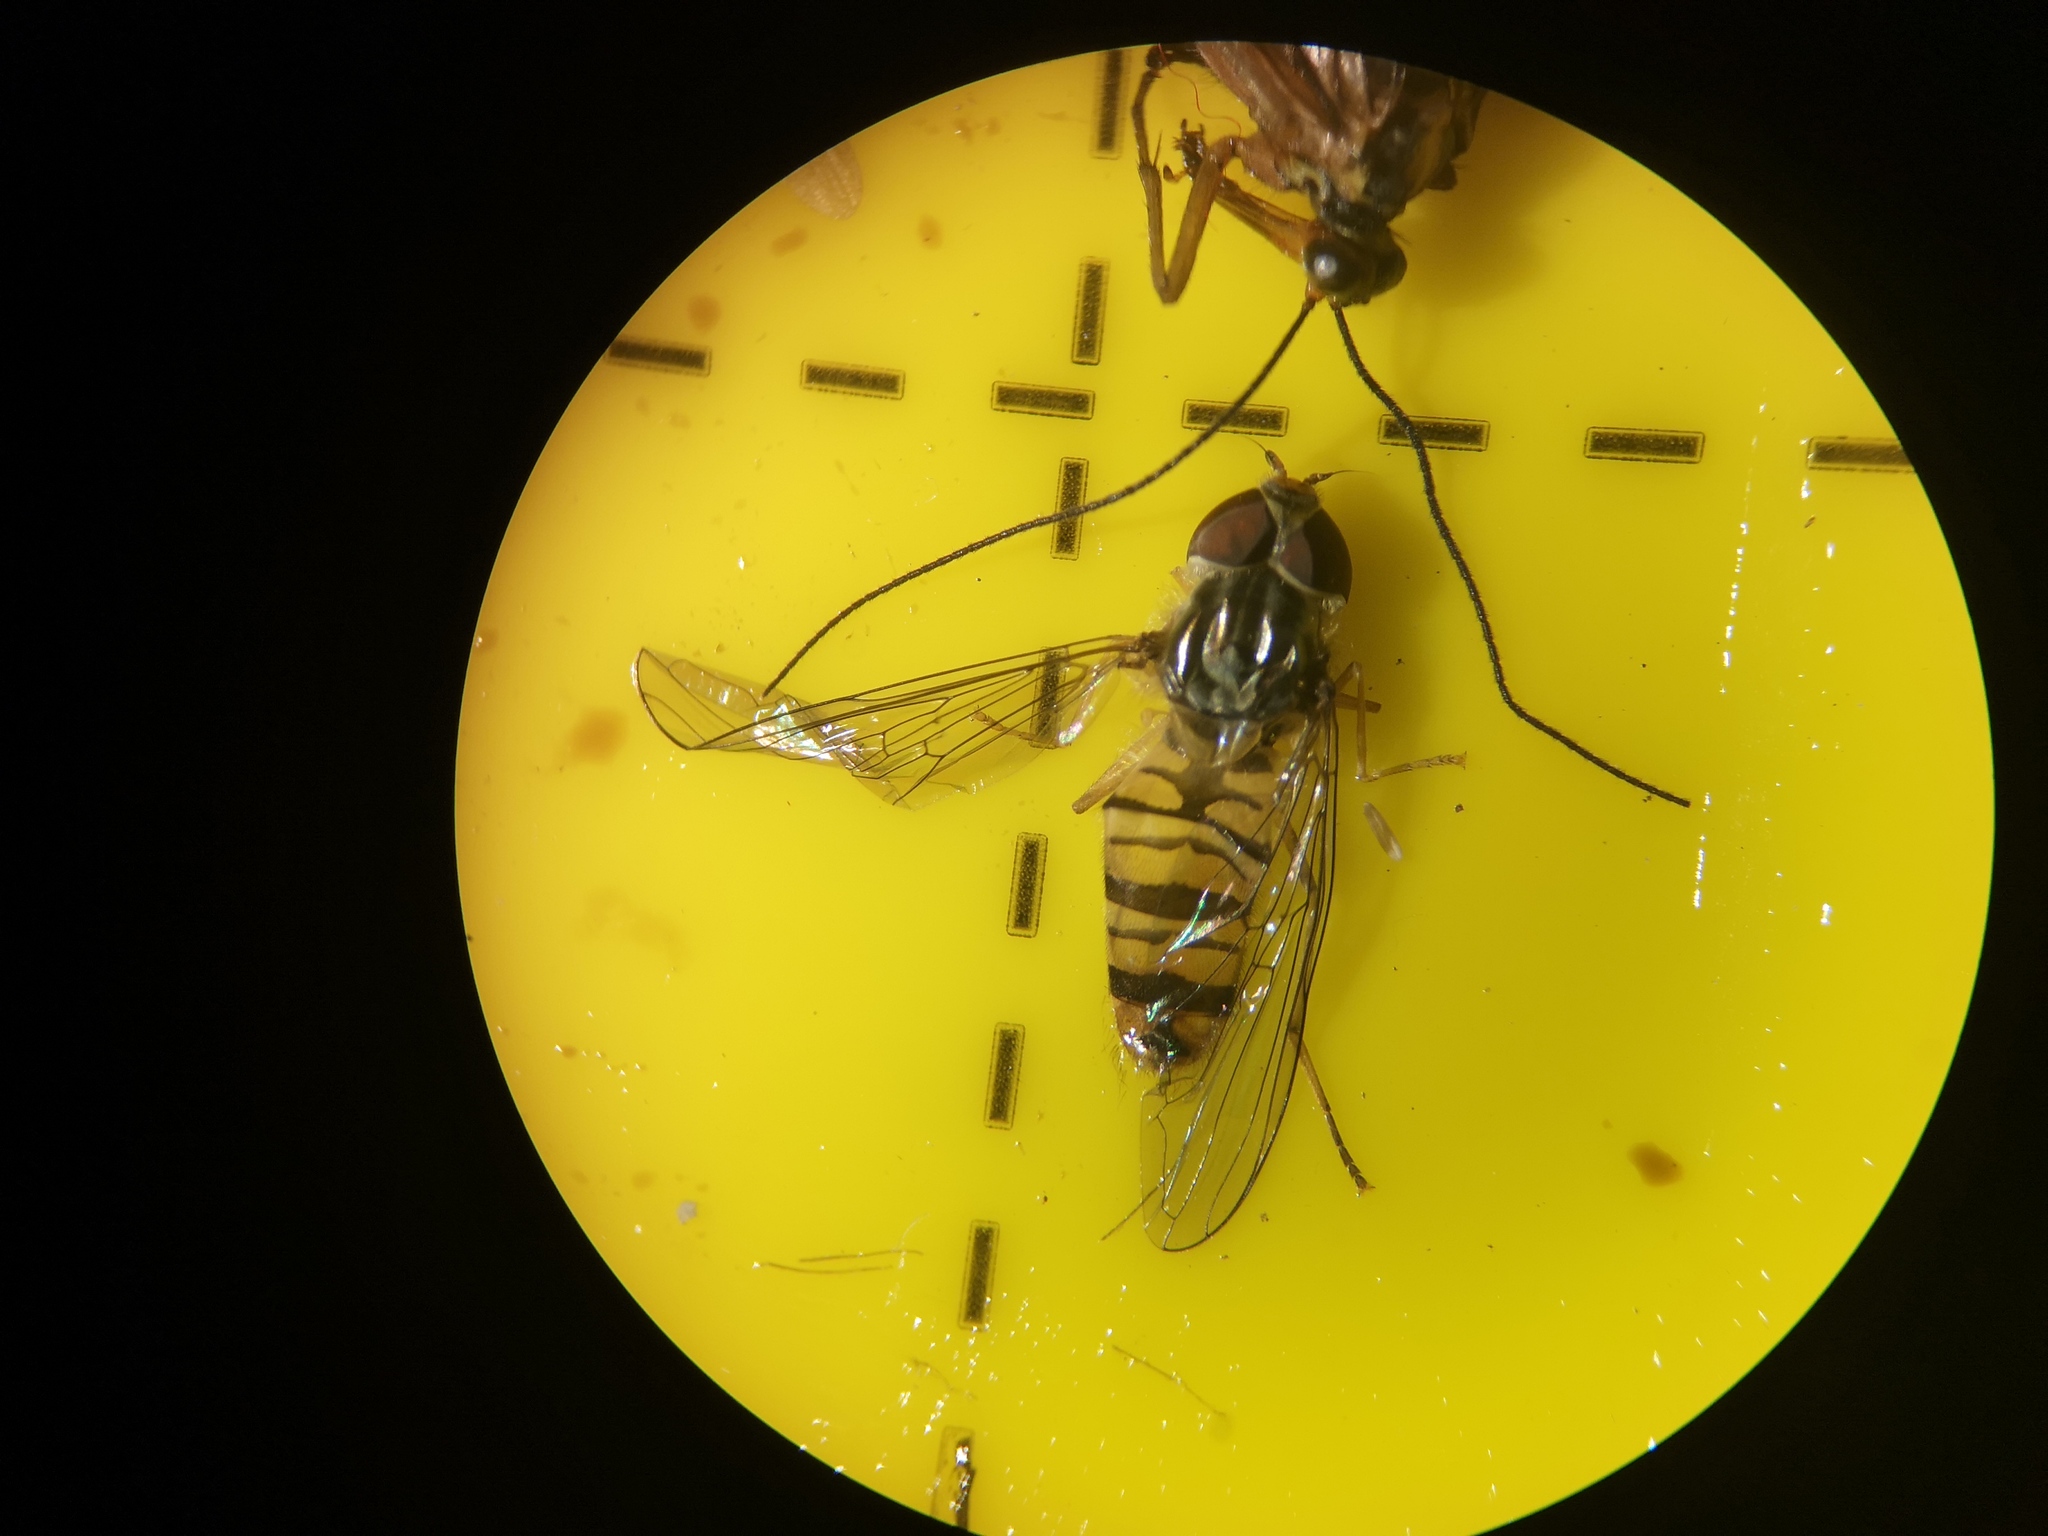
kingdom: Animalia
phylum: Arthropoda
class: Insecta
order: Diptera
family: Syrphidae
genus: Episyrphus
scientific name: Episyrphus balteatus
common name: Marmalade hoverfly
